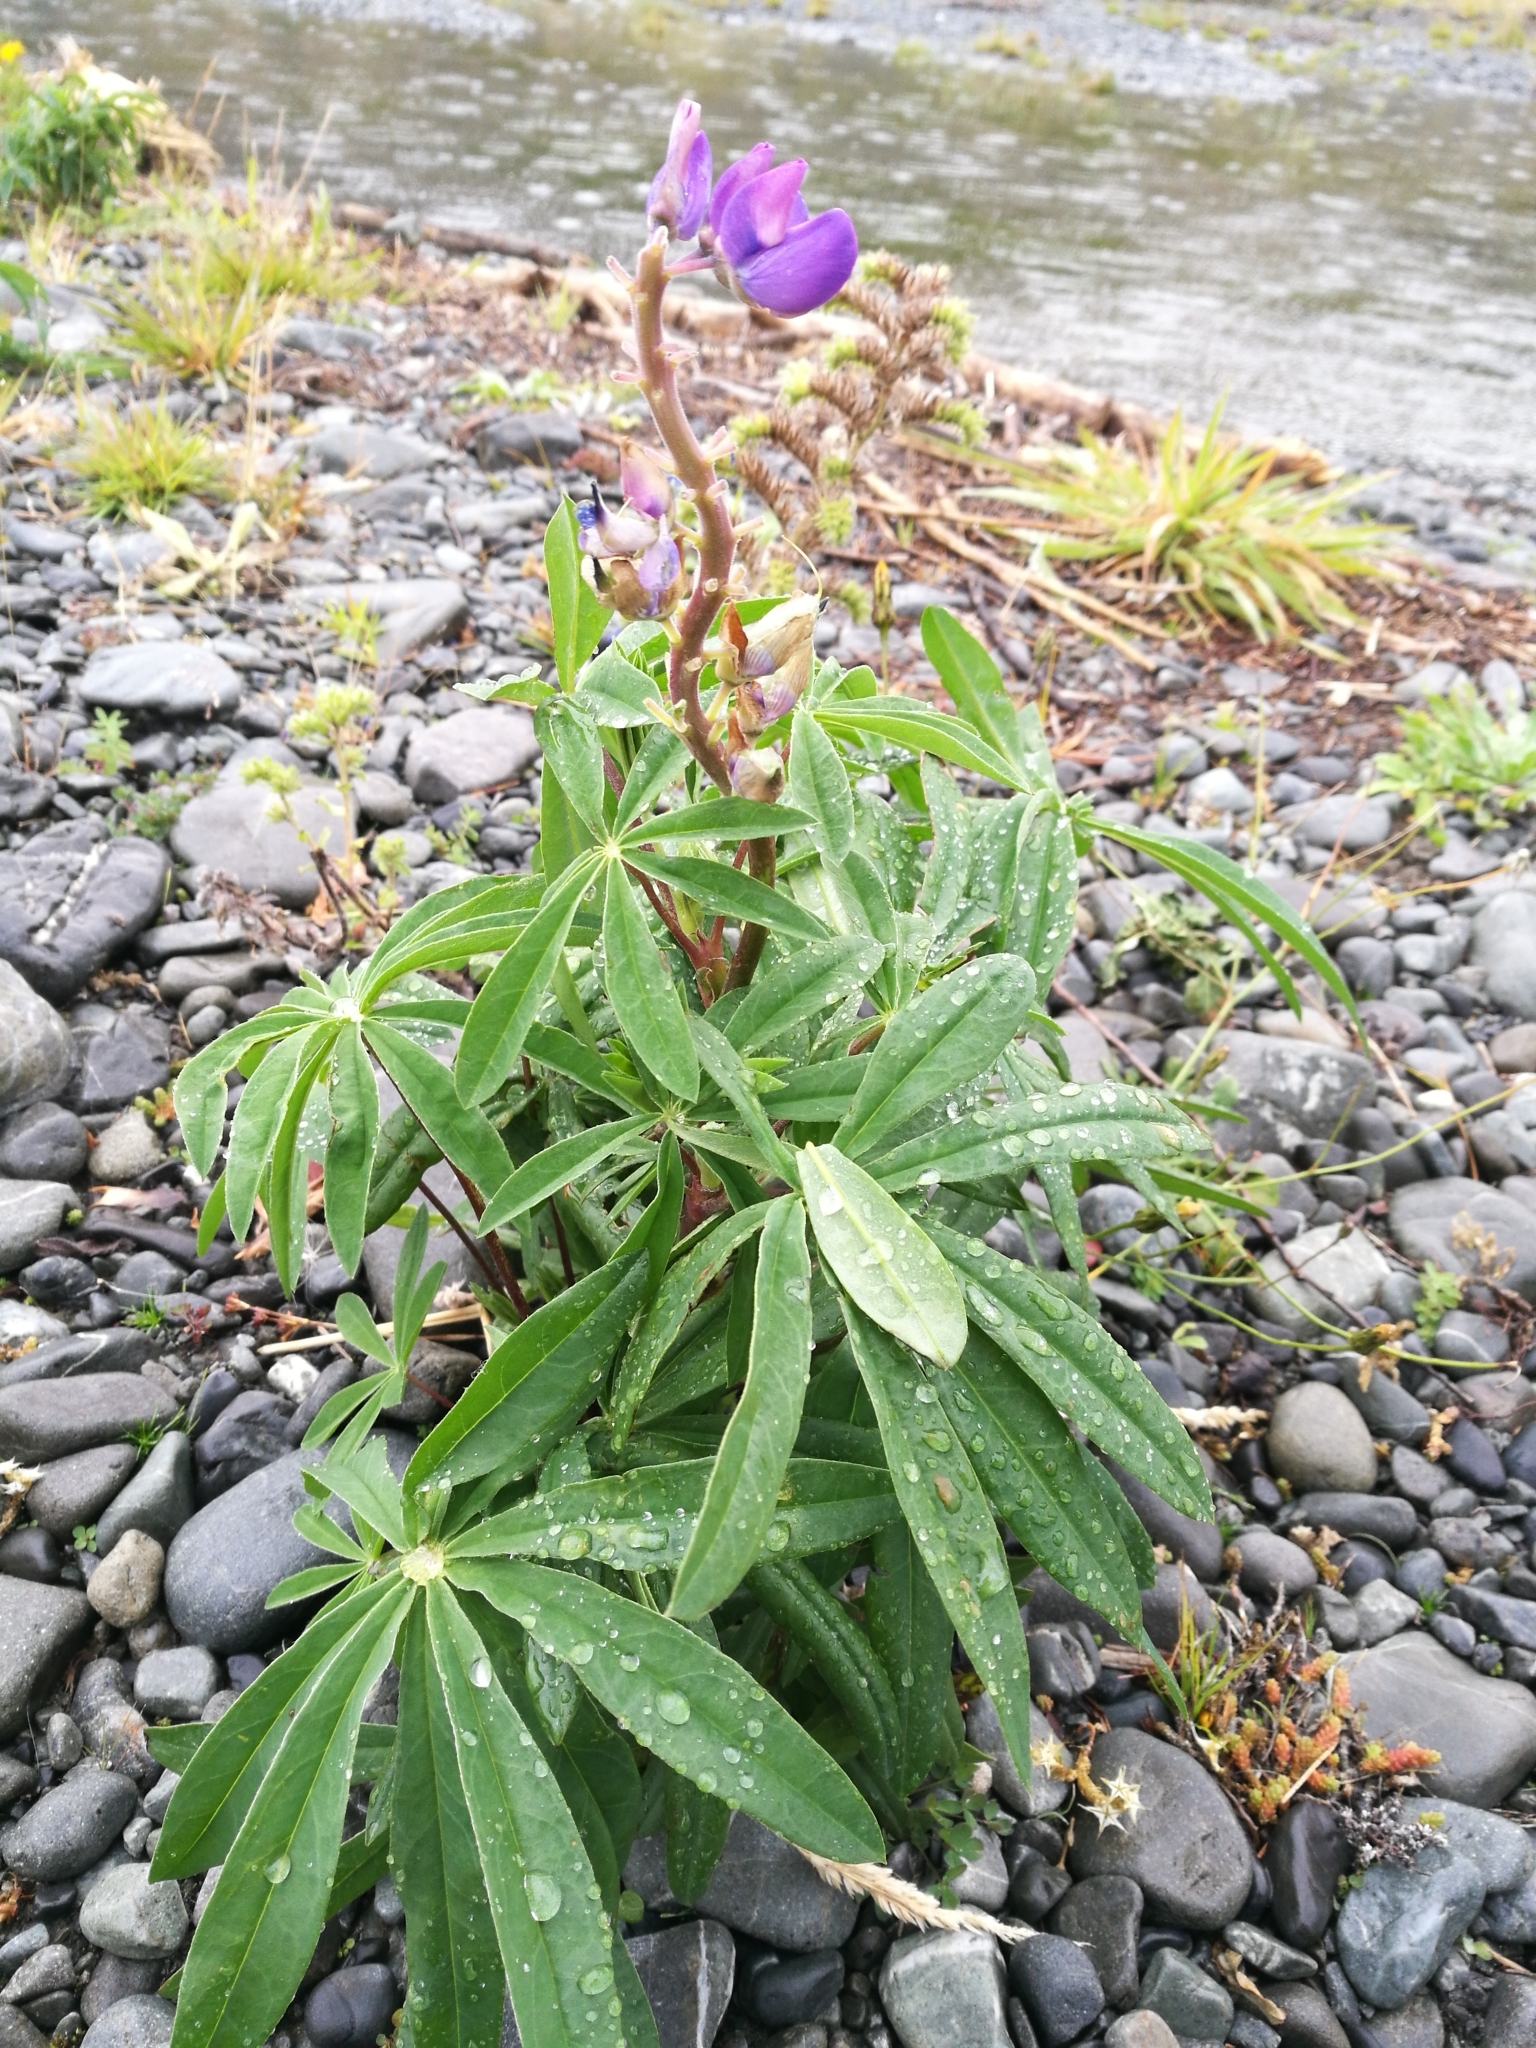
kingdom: Plantae
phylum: Tracheophyta
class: Magnoliopsida
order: Fabales
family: Fabaceae
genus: Lupinus
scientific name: Lupinus polyphyllus
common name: Garden lupin
